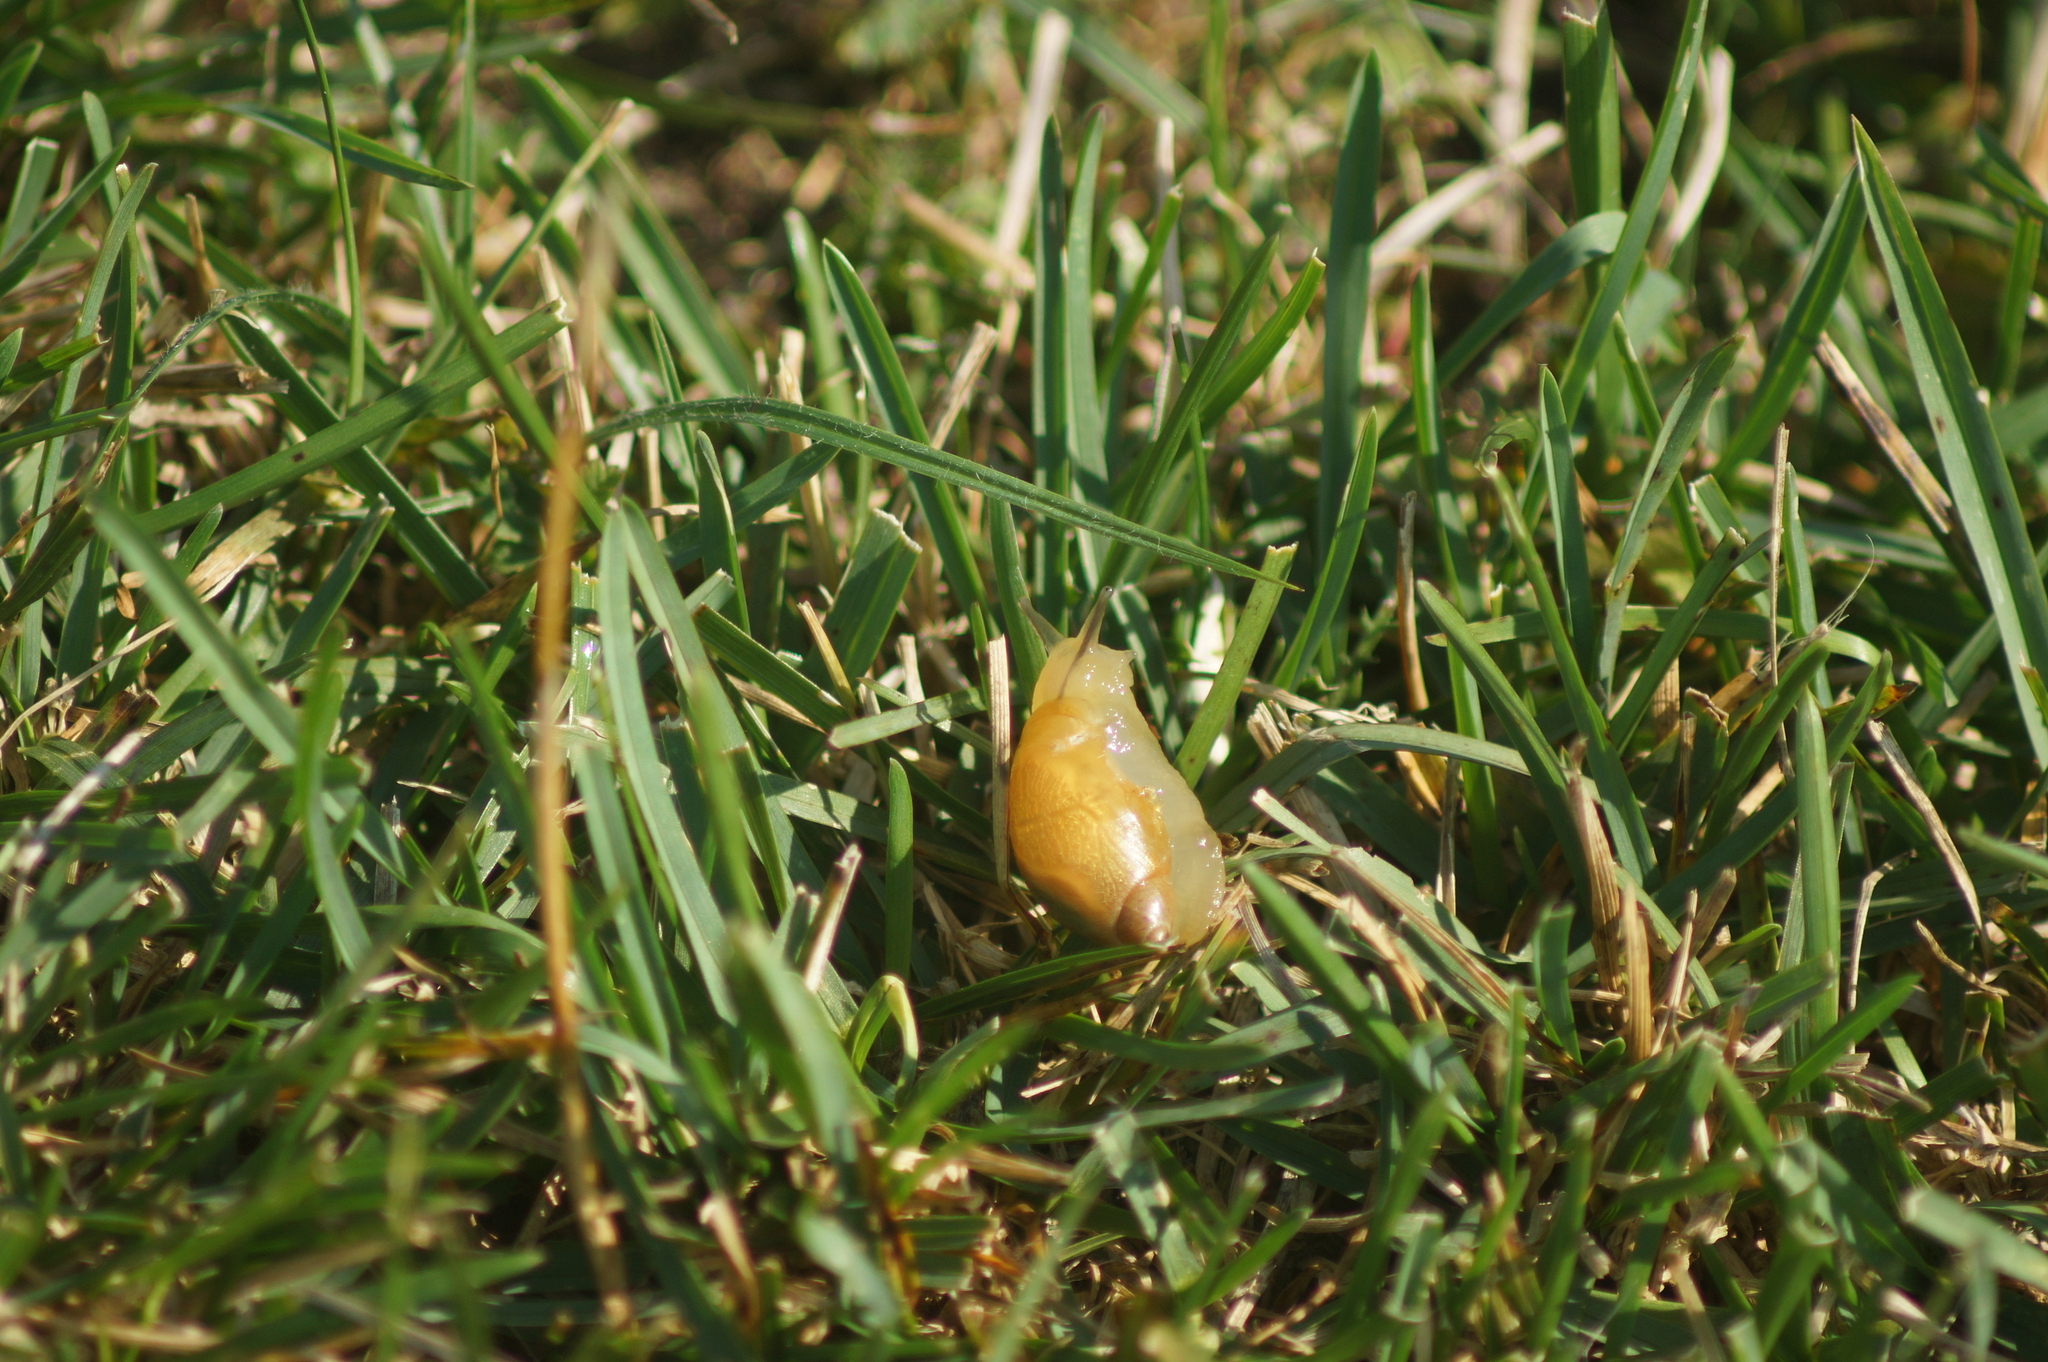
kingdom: Animalia
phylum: Mollusca
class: Gastropoda
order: Stylommatophora
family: Succineidae
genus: Succinea
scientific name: Succinea putris
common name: European ambersnail
